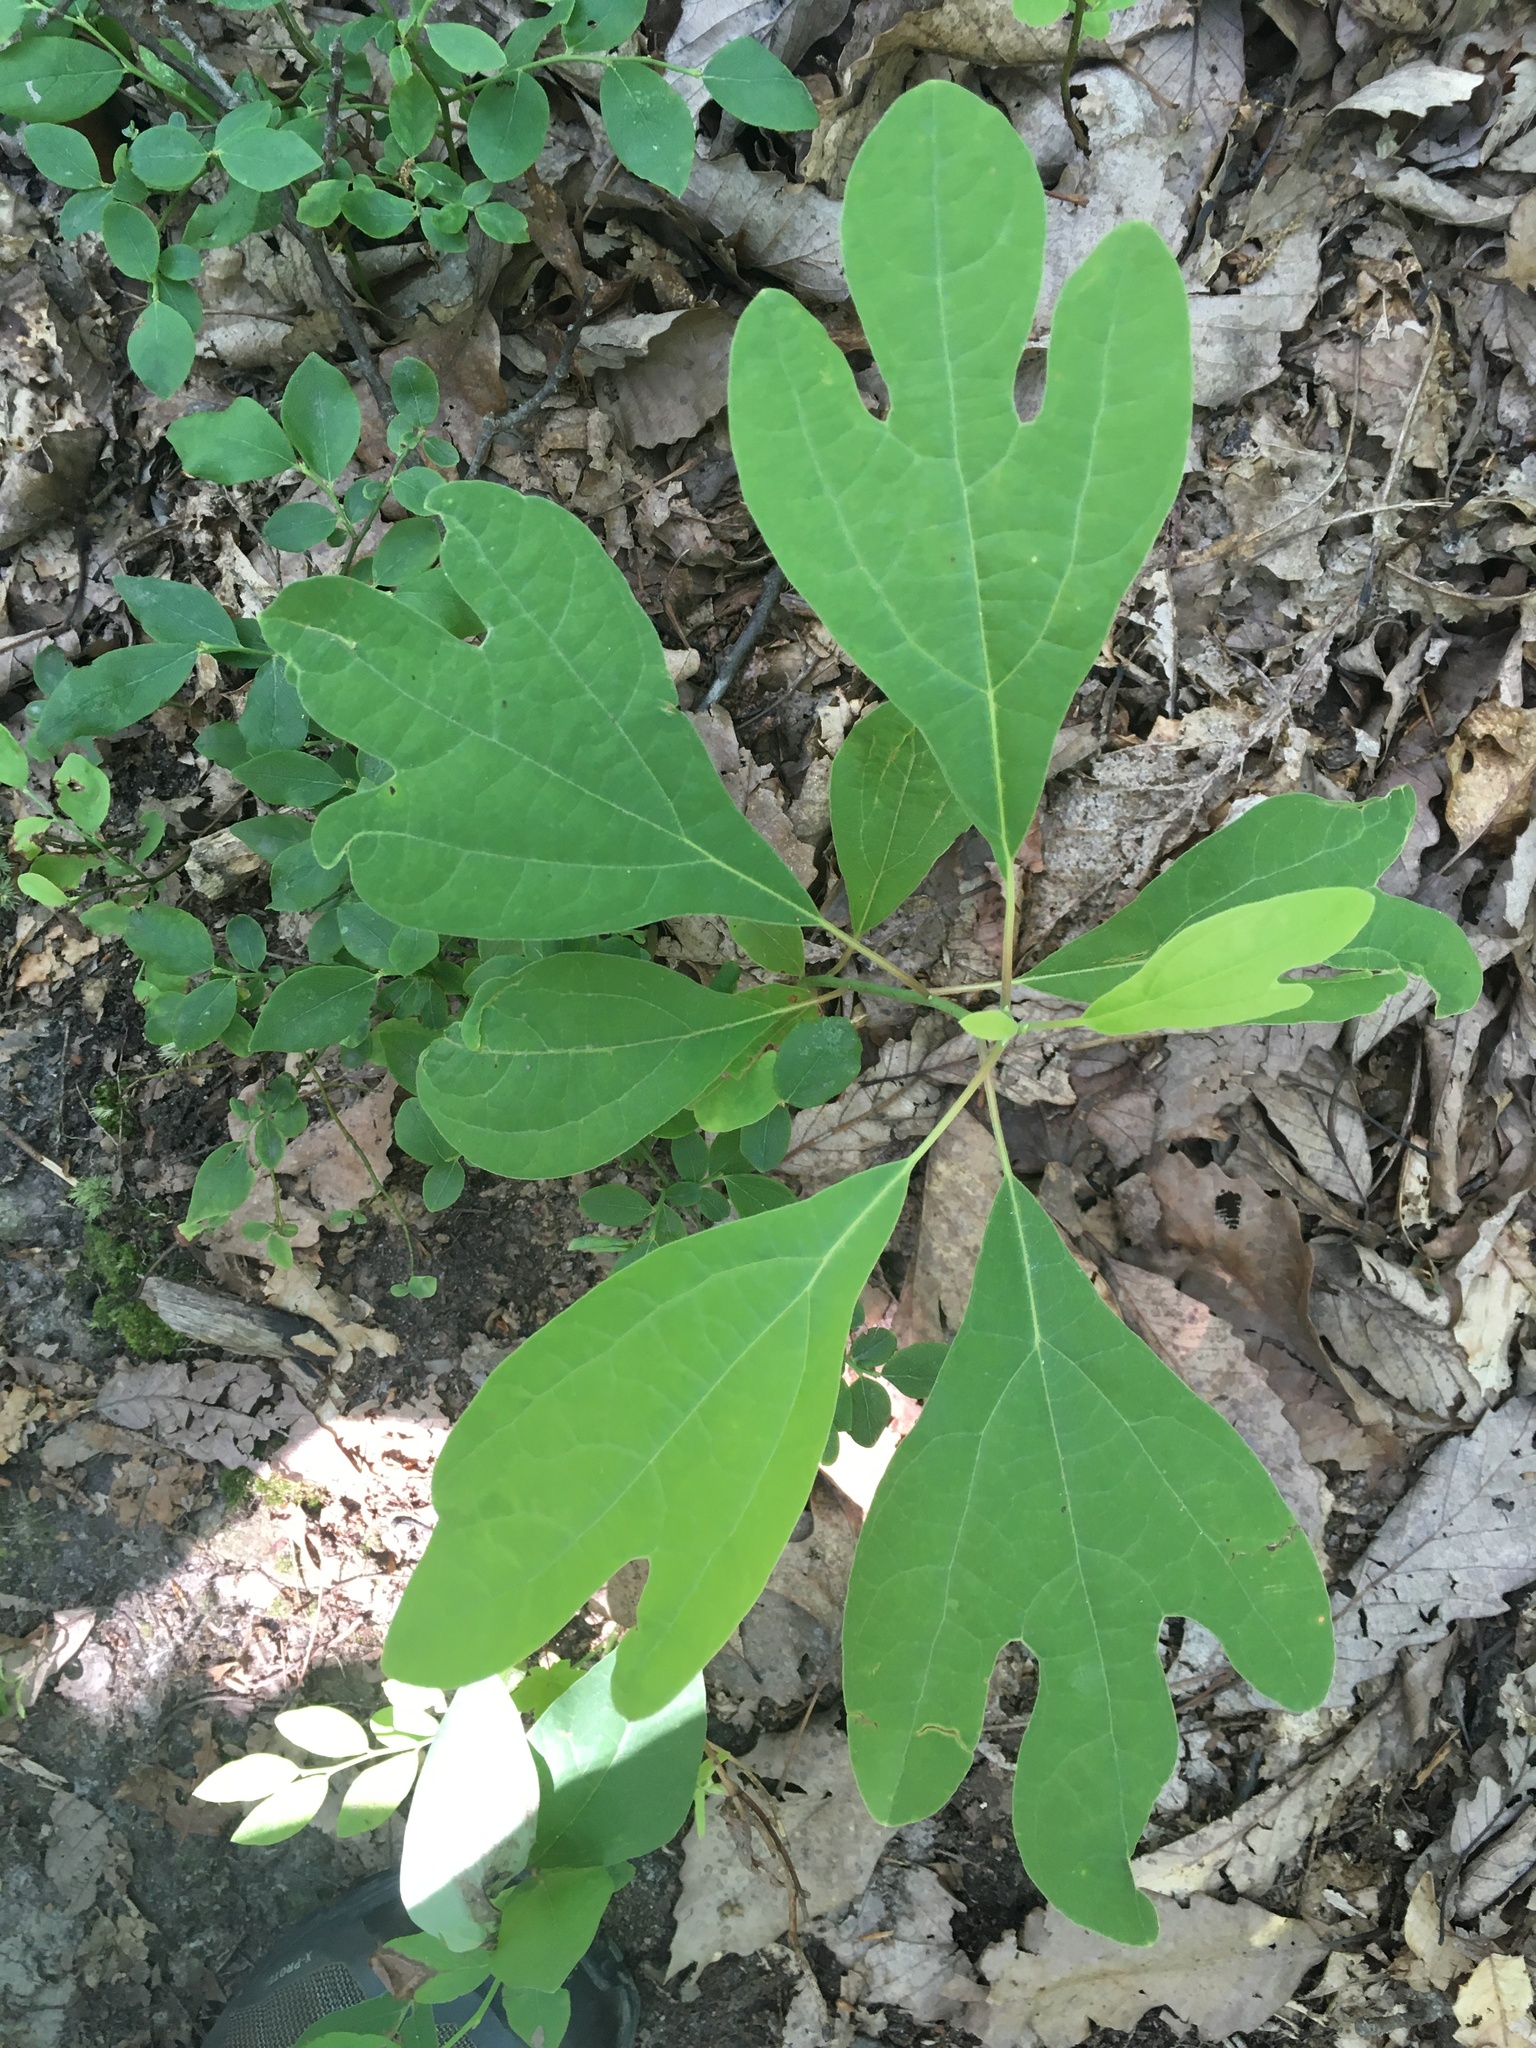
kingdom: Plantae
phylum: Tracheophyta
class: Magnoliopsida
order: Laurales
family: Lauraceae
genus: Sassafras
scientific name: Sassafras albidum
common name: Sassafras
